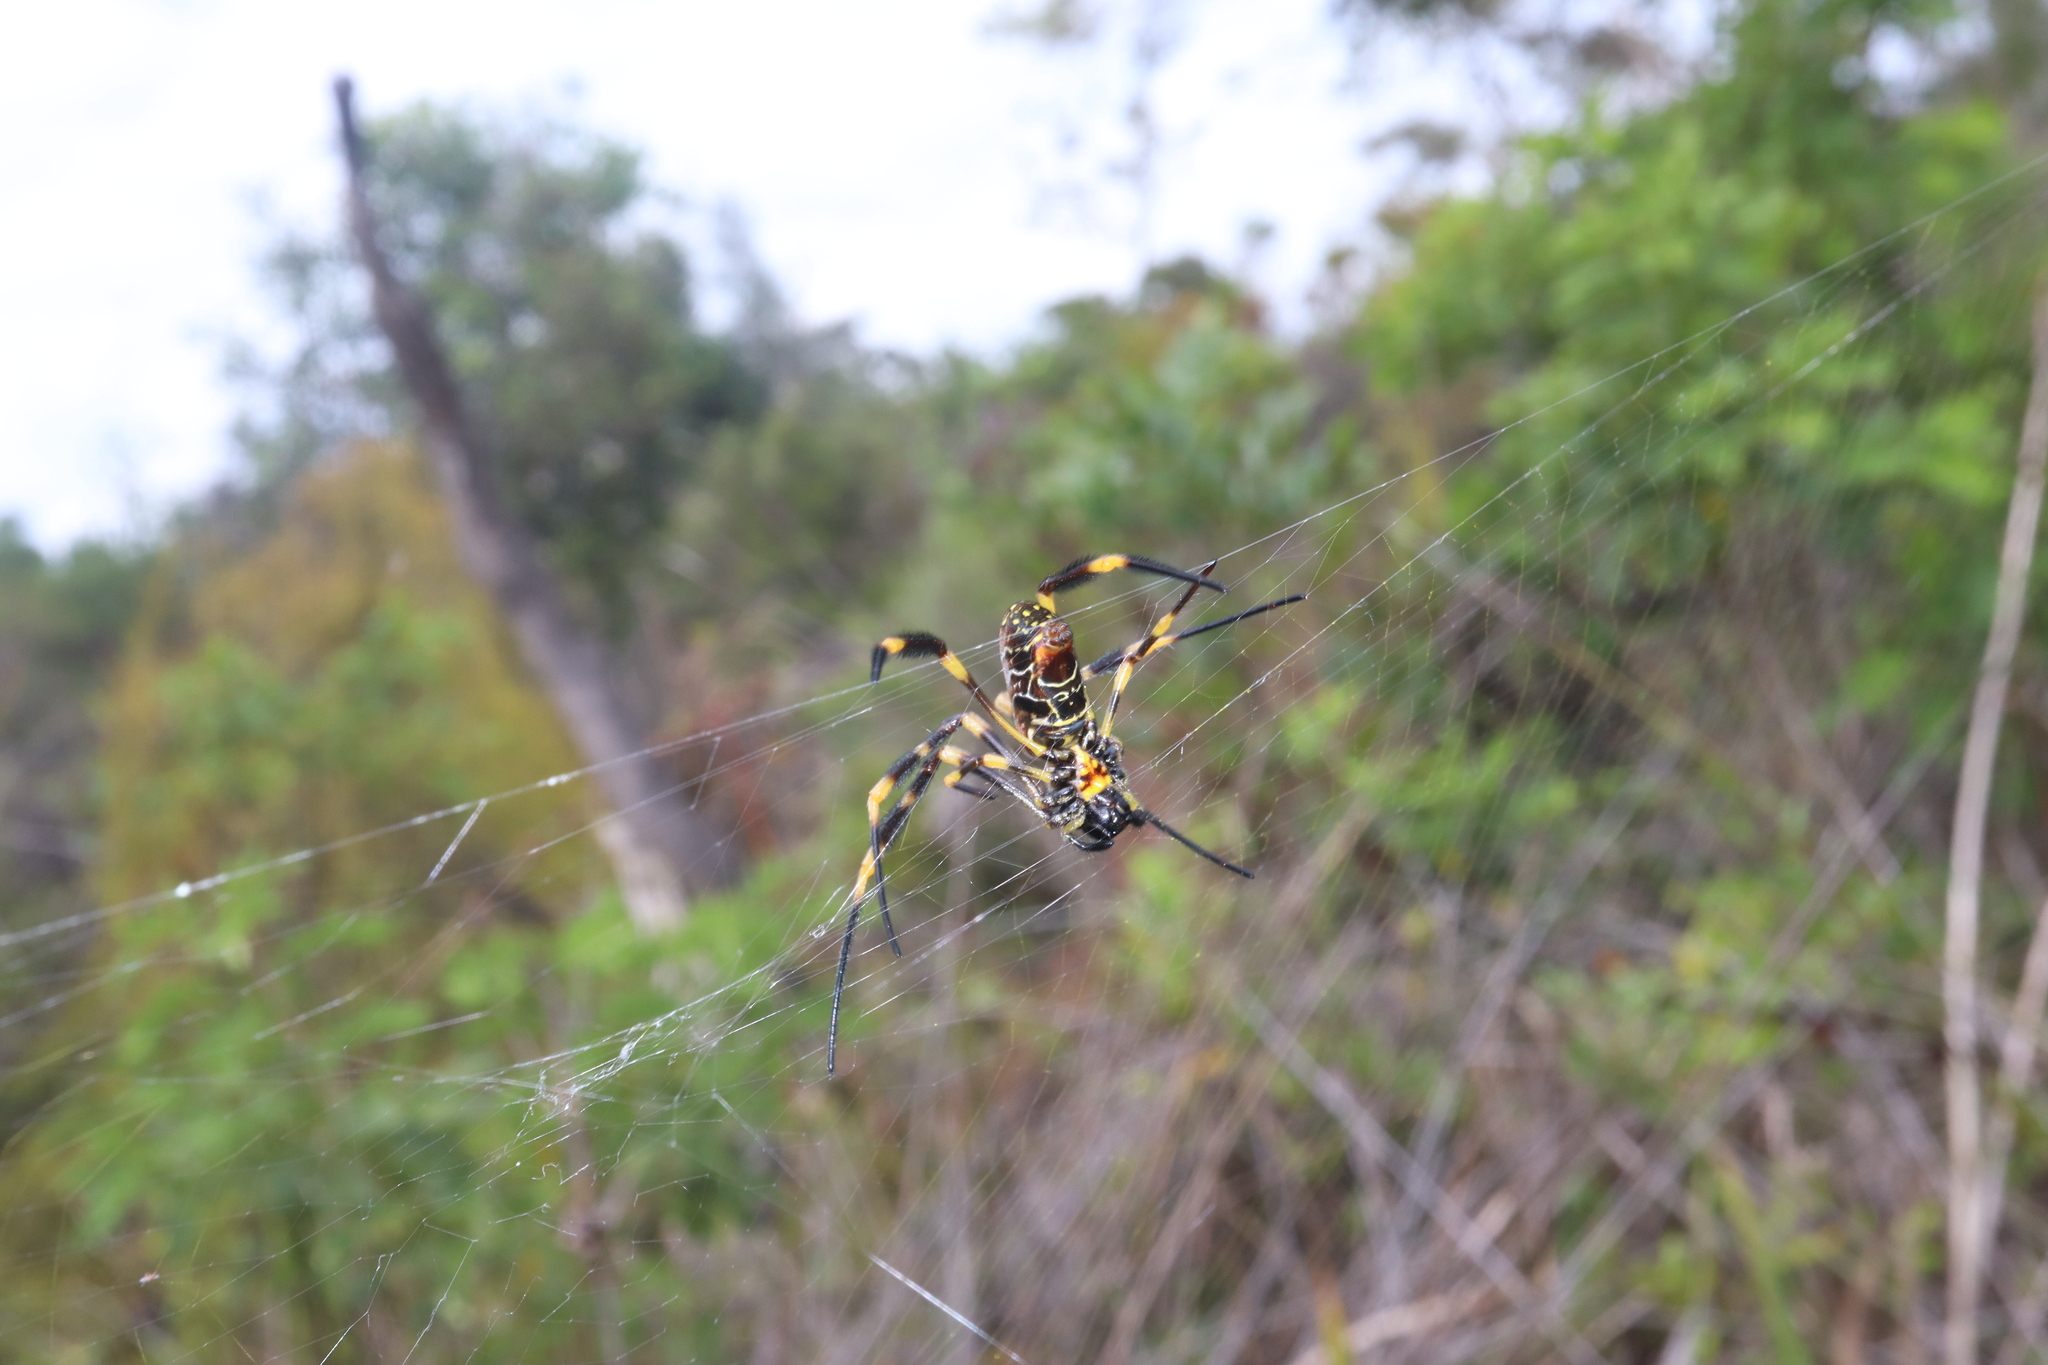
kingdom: Animalia
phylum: Arthropoda
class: Arachnida
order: Araneae
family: Araneidae
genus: Trichonephila
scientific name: Trichonephila plumipes
